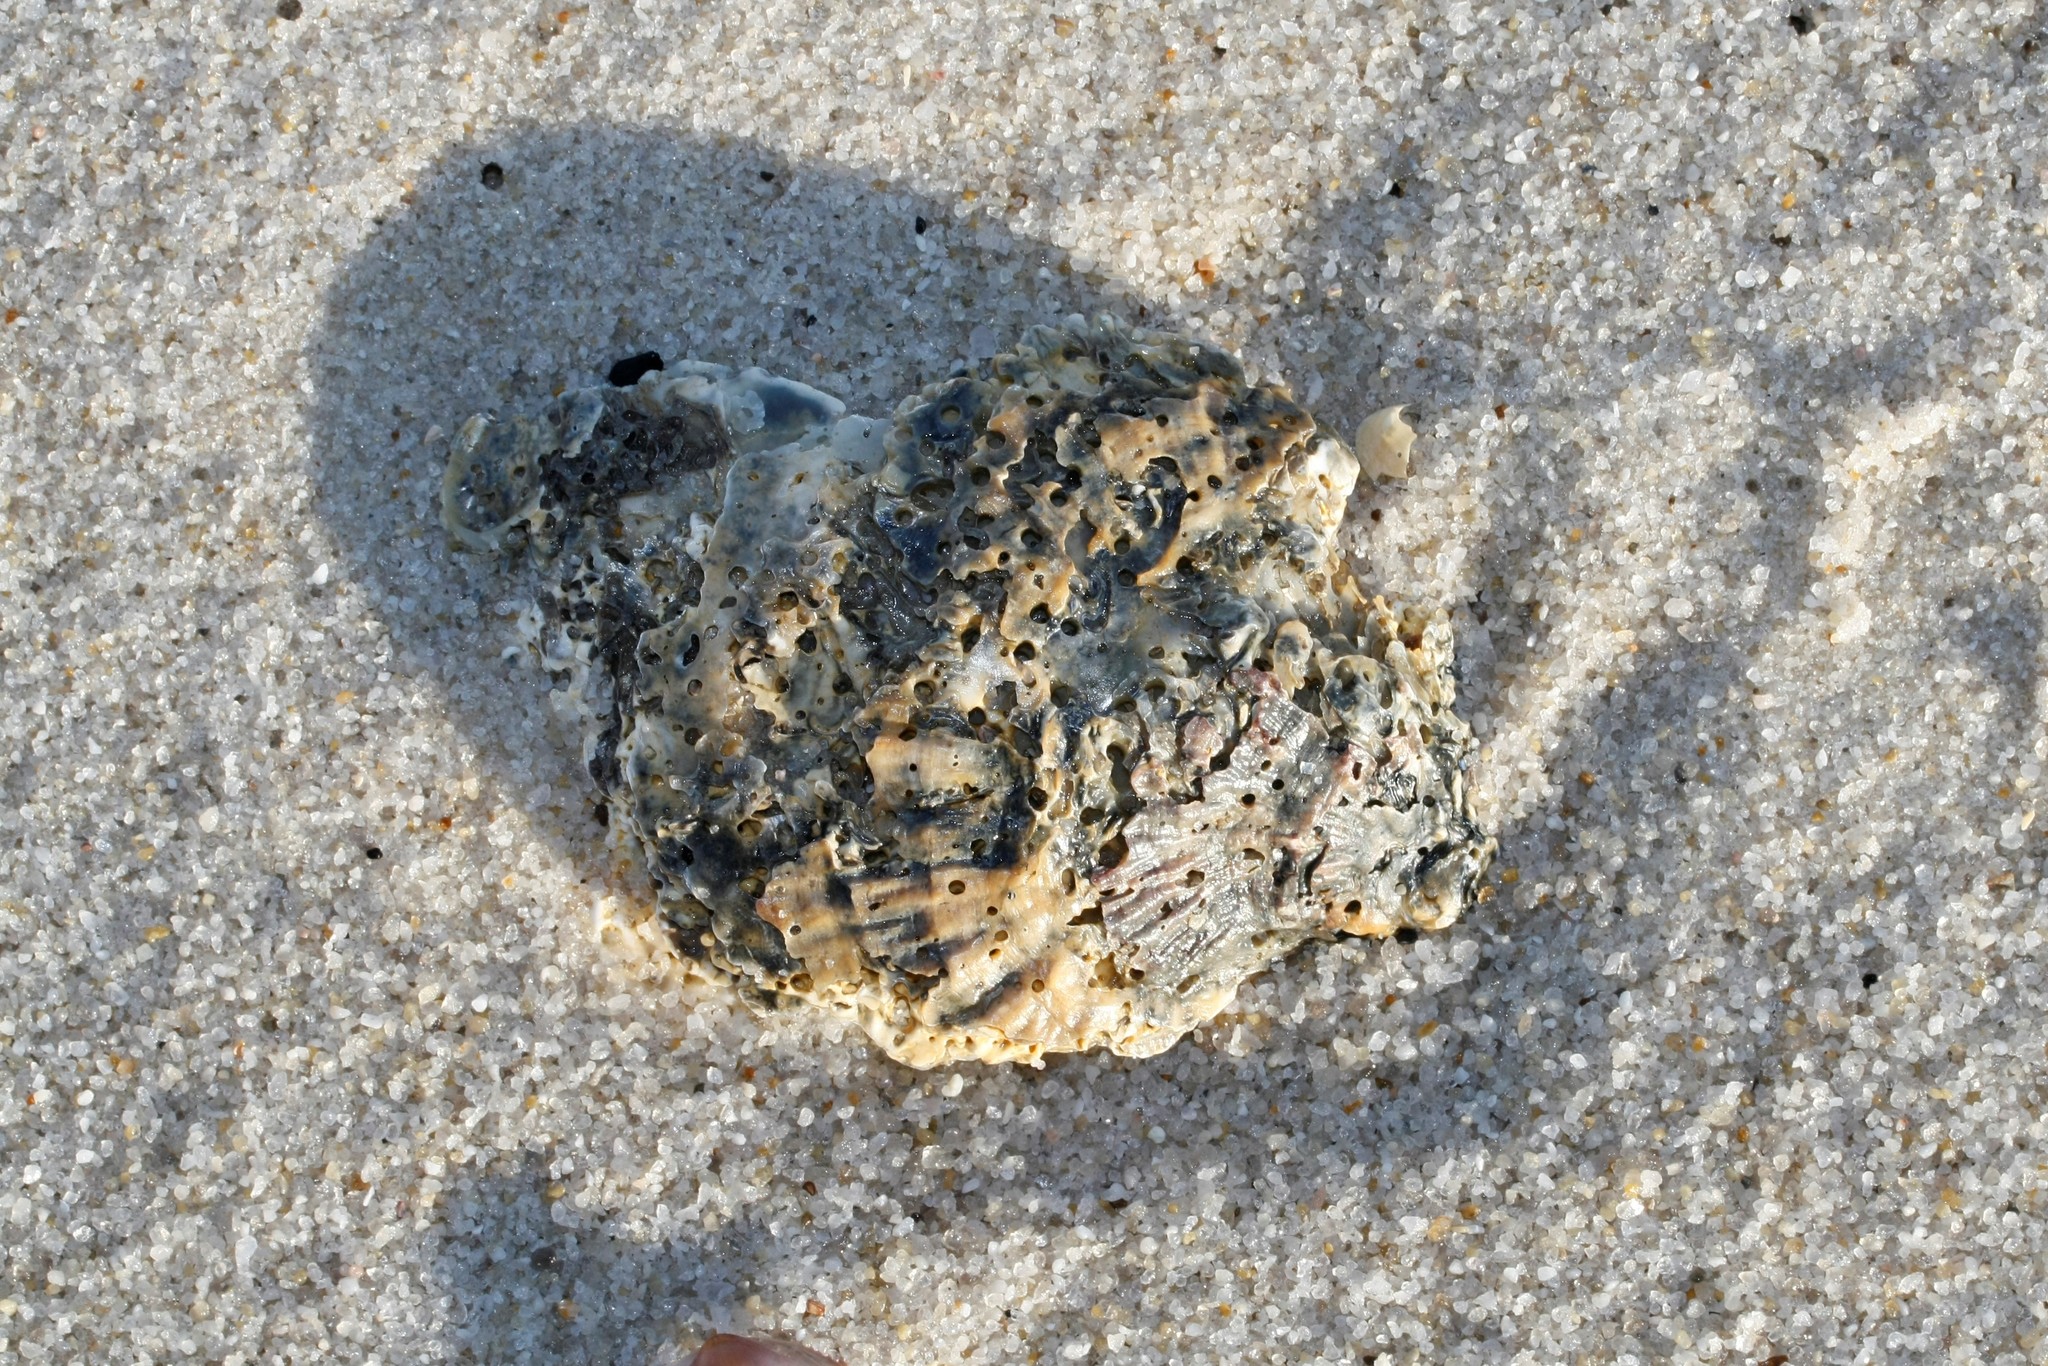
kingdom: Animalia
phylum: Mollusca
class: Bivalvia
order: Ostreida
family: Ostreidae
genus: Ostrea
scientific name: Ostrea edulis
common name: Flat oyster
